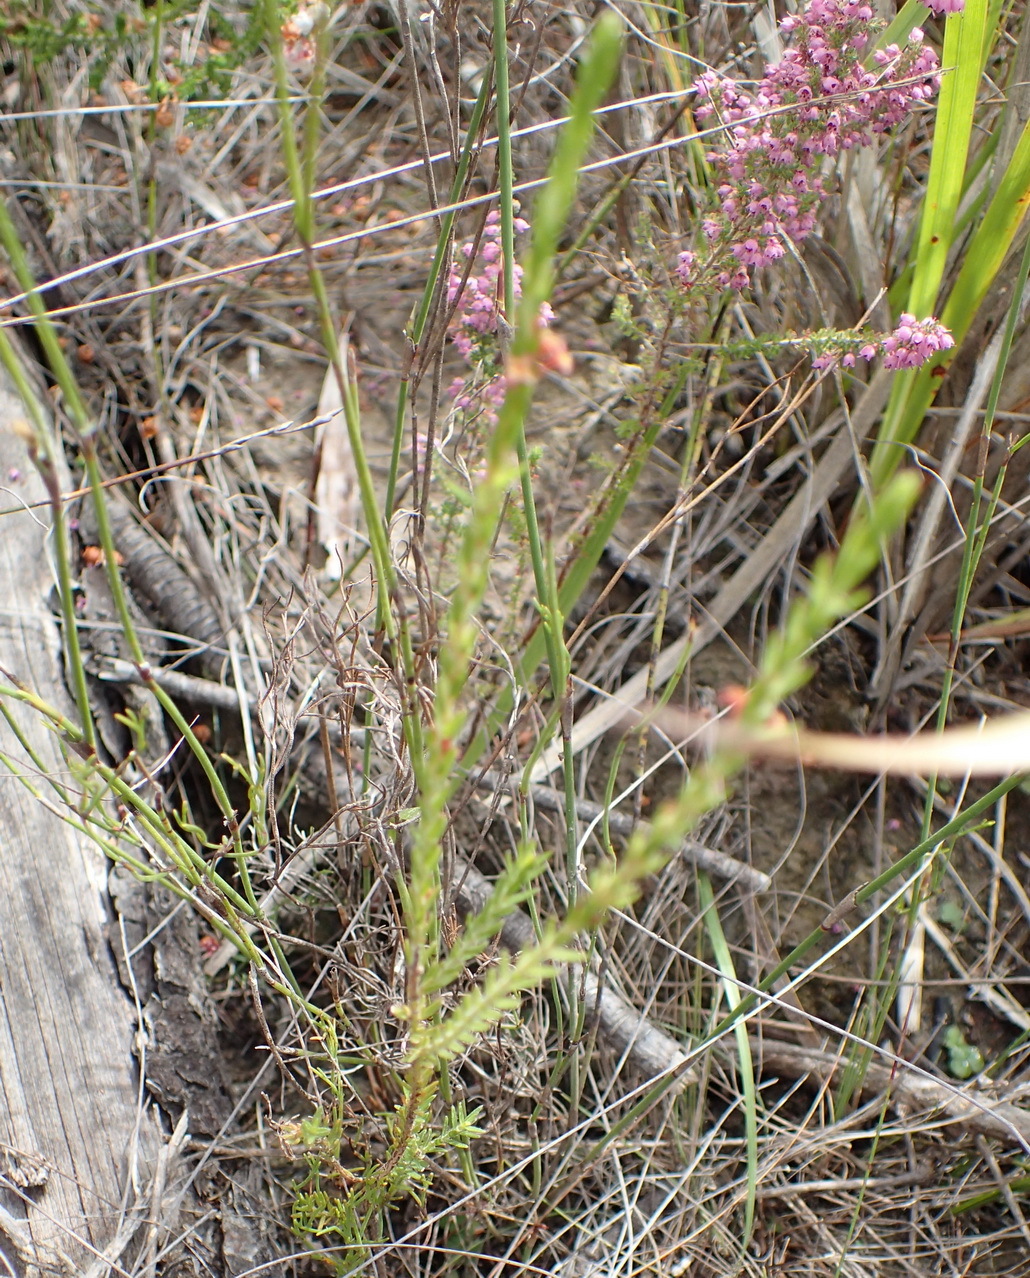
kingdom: Plantae
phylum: Tracheophyta
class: Magnoliopsida
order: Malvales
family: Thymelaeaceae
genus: Struthiola
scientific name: Struthiola parviflora
